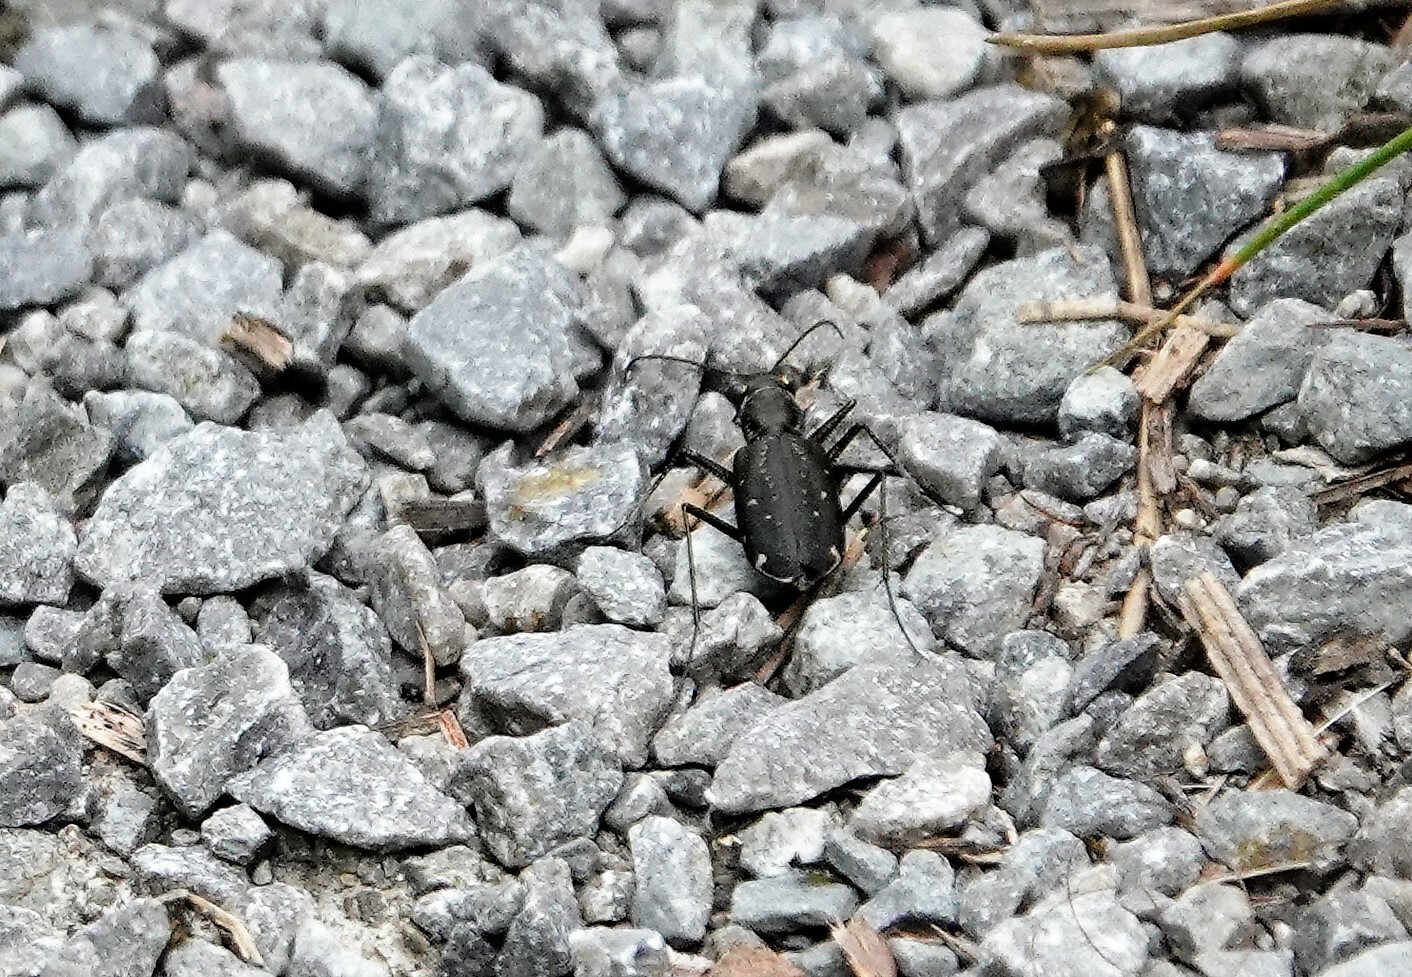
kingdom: Animalia
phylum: Arthropoda
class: Insecta
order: Coleoptera
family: Carabidae
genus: Cicindela
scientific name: Cicindela punctulata
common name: Punctured tiger beetle
